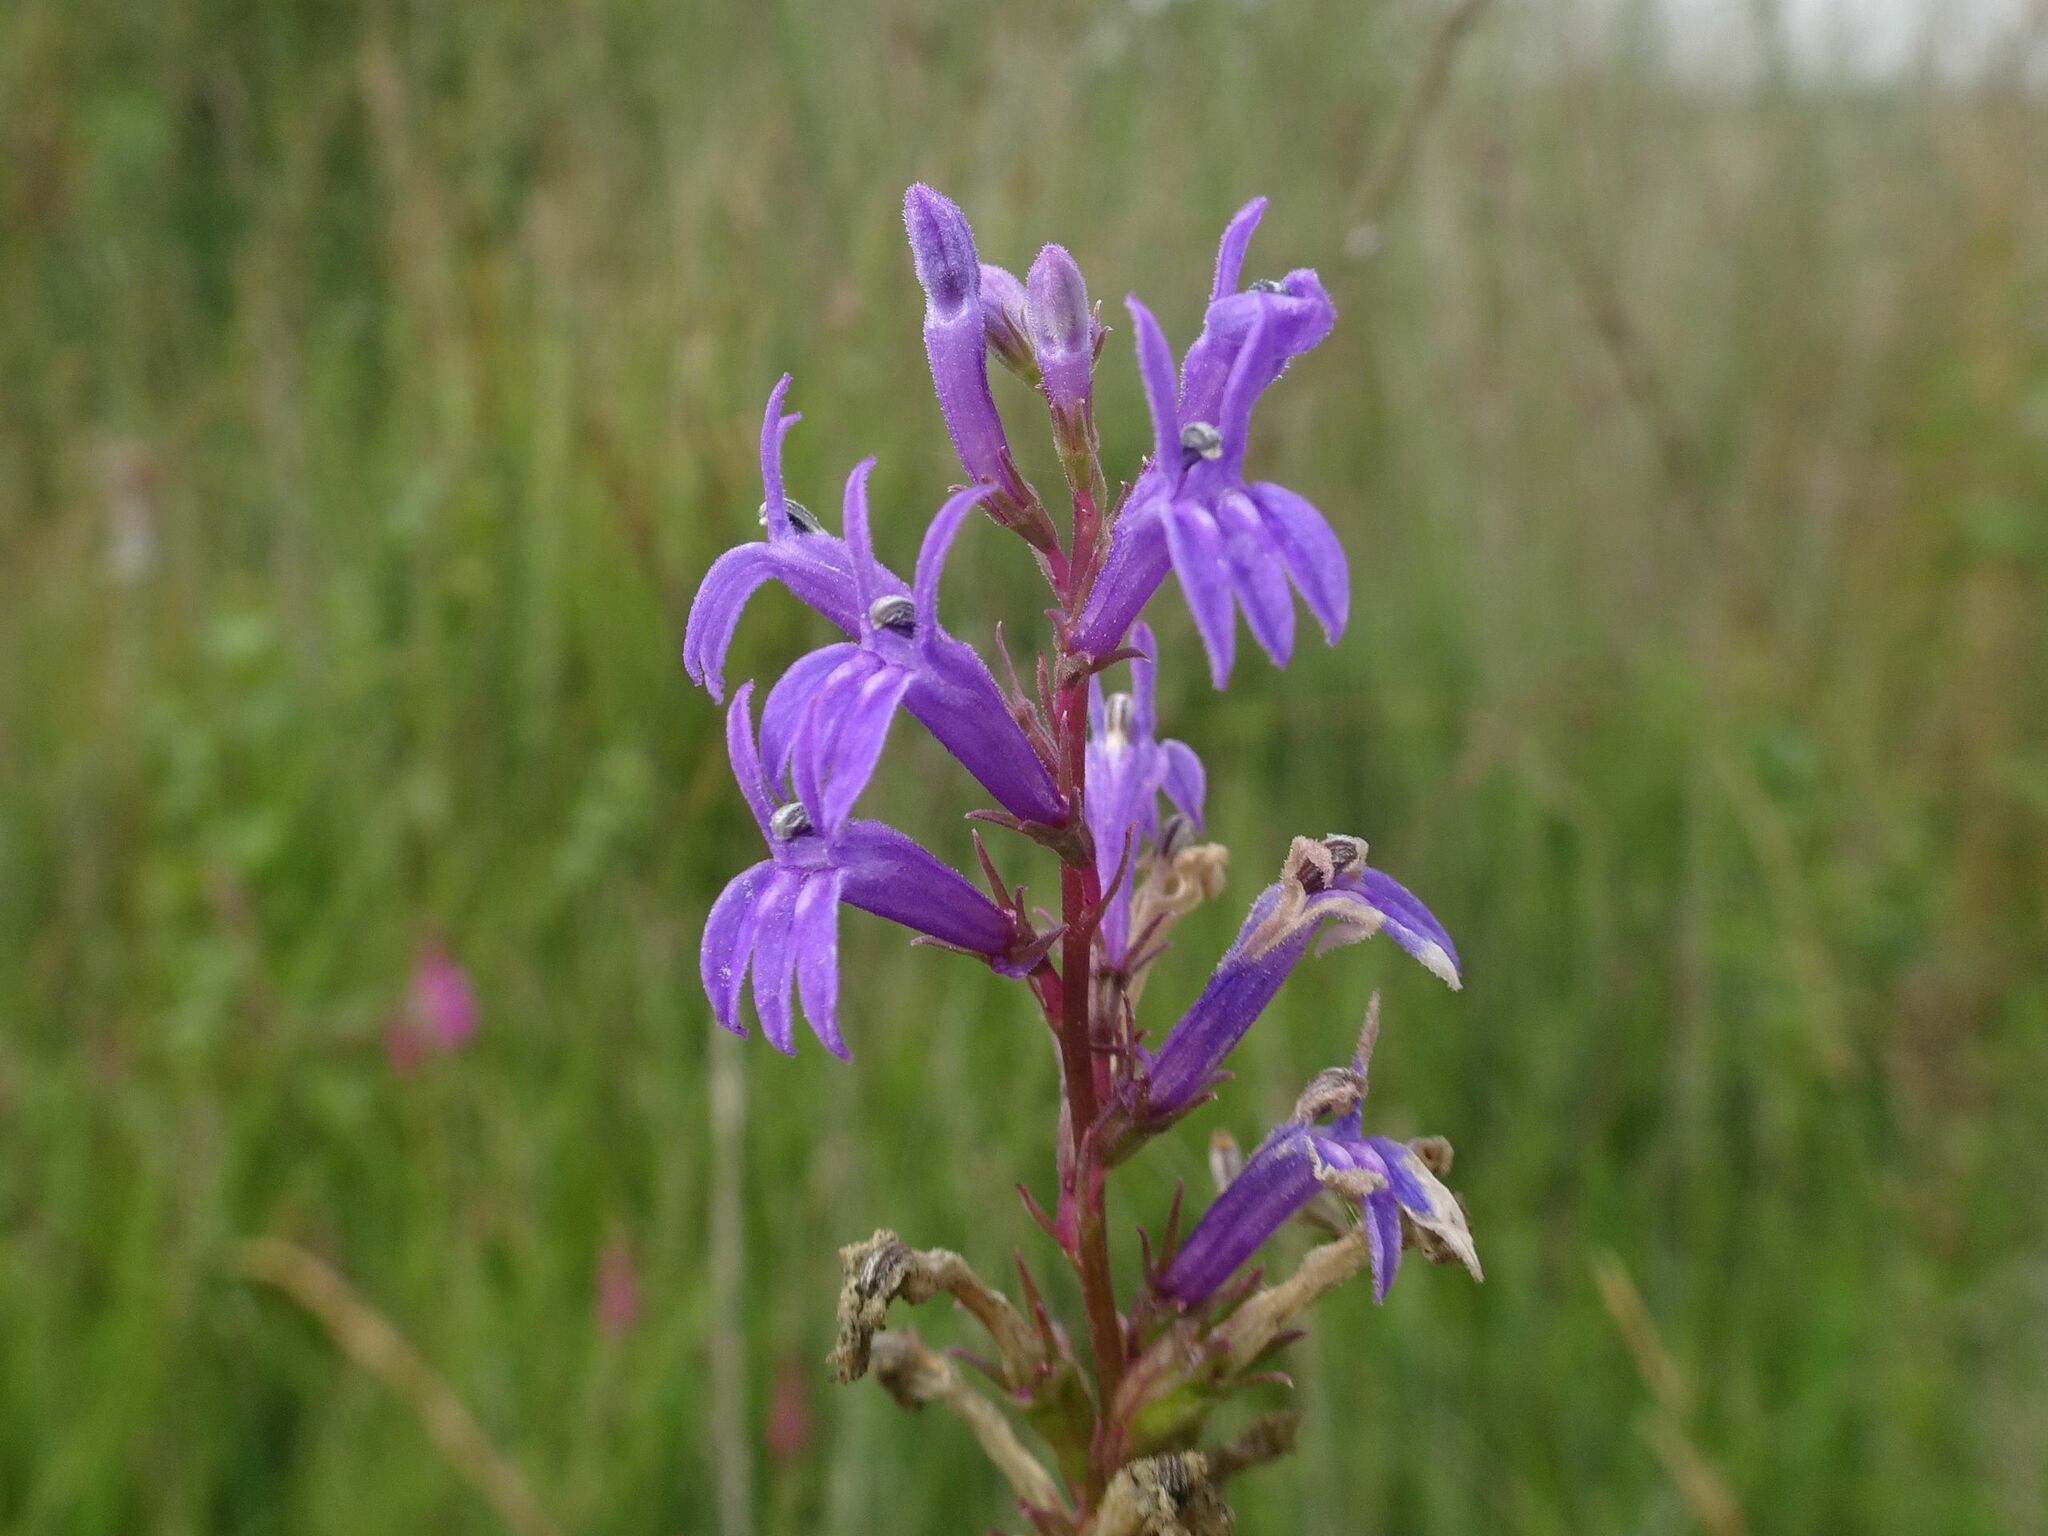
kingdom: Plantae
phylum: Tracheophyta
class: Magnoliopsida
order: Asterales
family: Campanulaceae
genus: Lobelia
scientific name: Lobelia urens
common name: Heath lobelia
